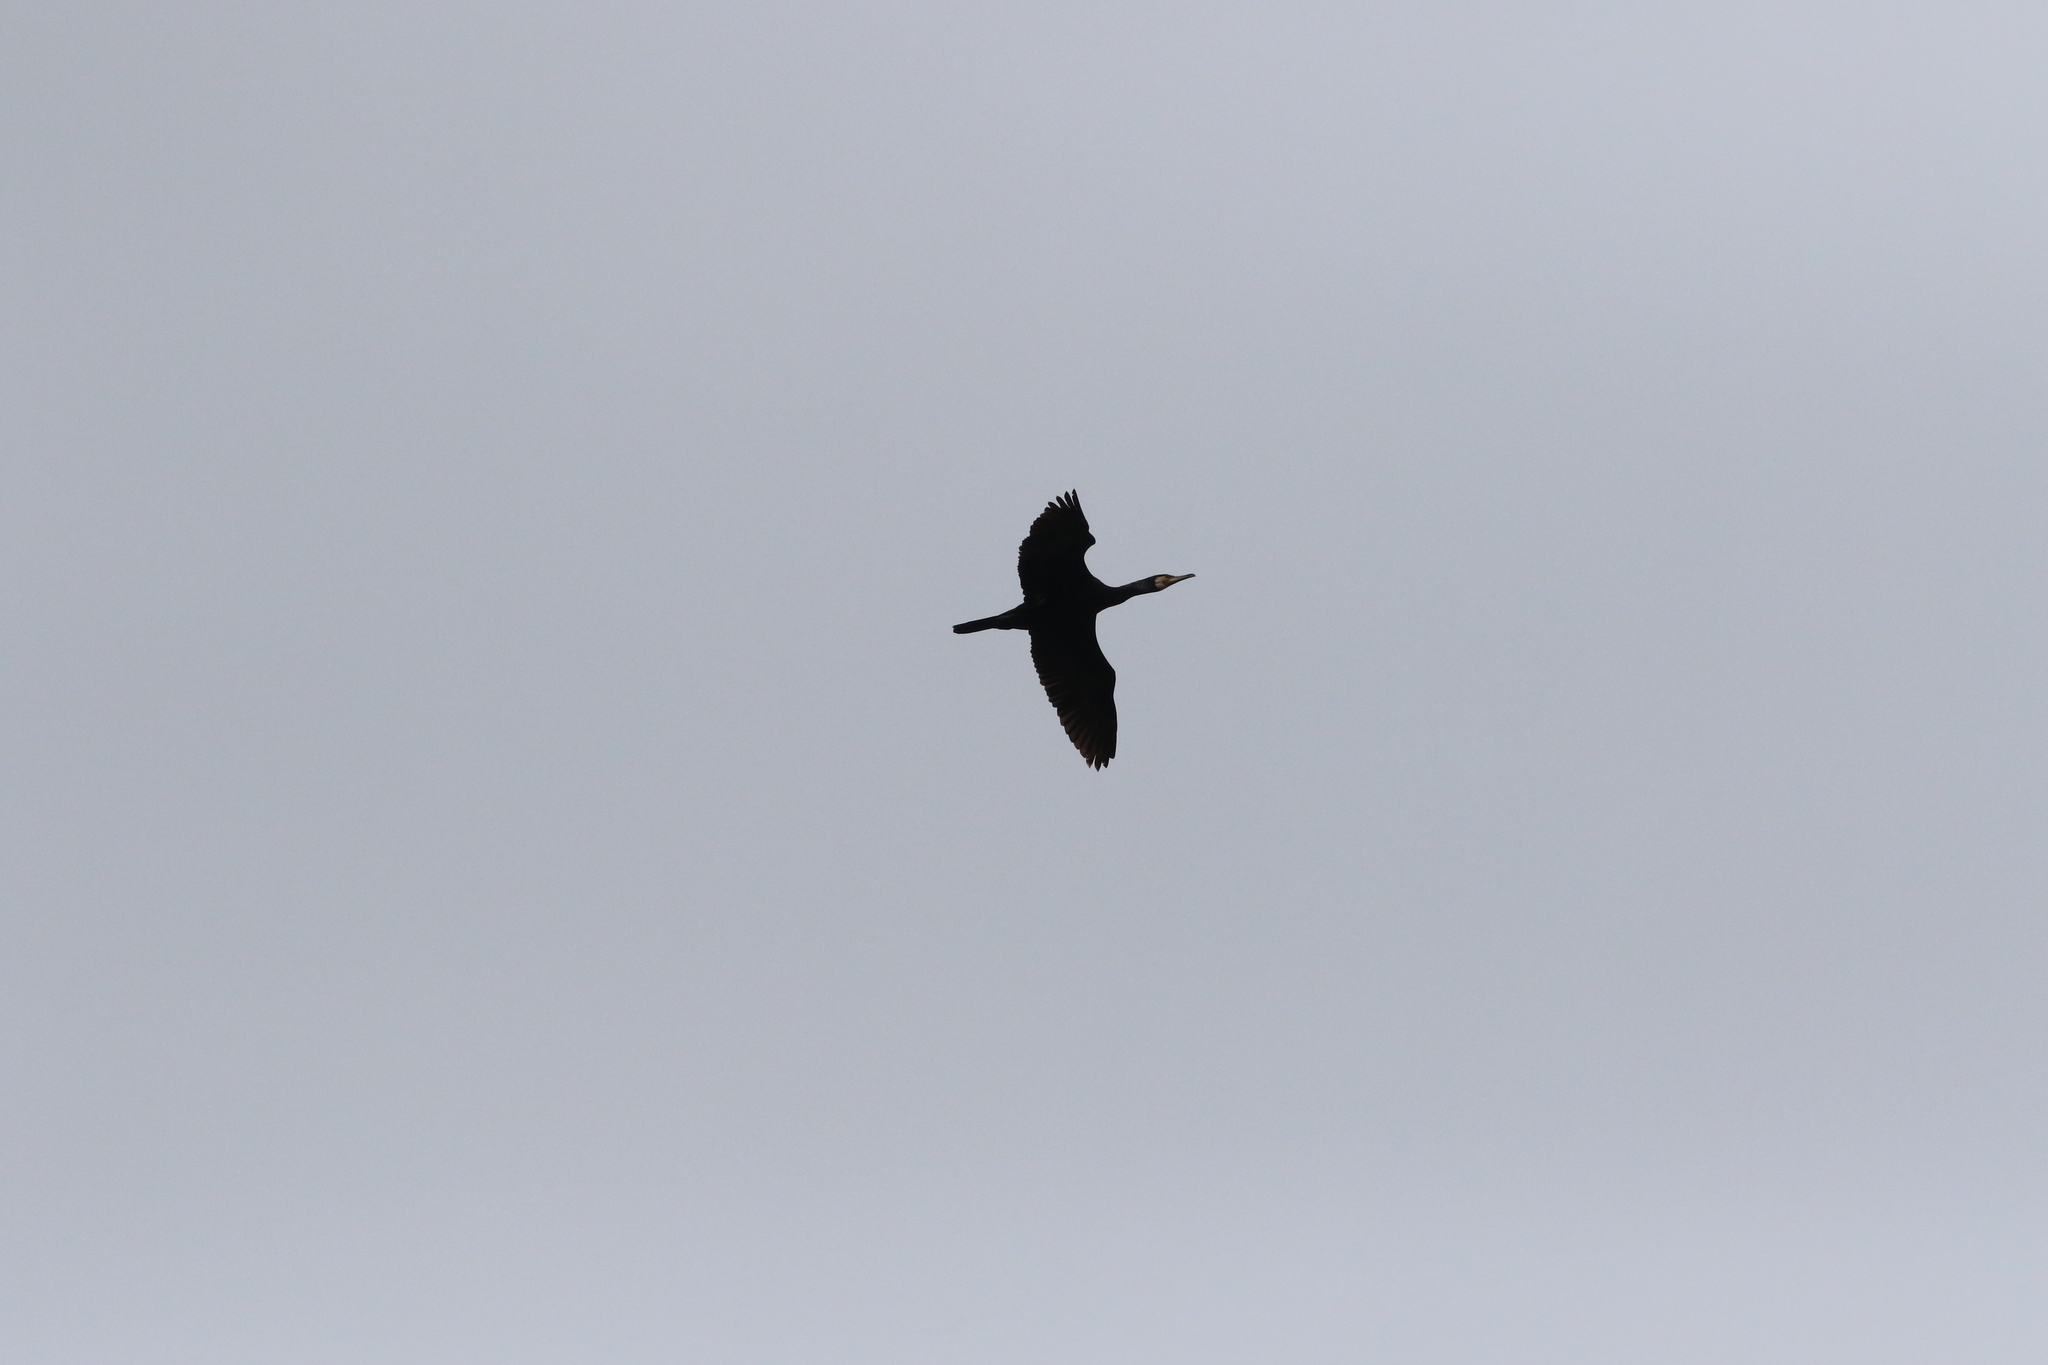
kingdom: Animalia
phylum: Chordata
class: Aves
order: Suliformes
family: Phalacrocoracidae
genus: Phalacrocorax
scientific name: Phalacrocorax carbo
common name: Great cormorant
